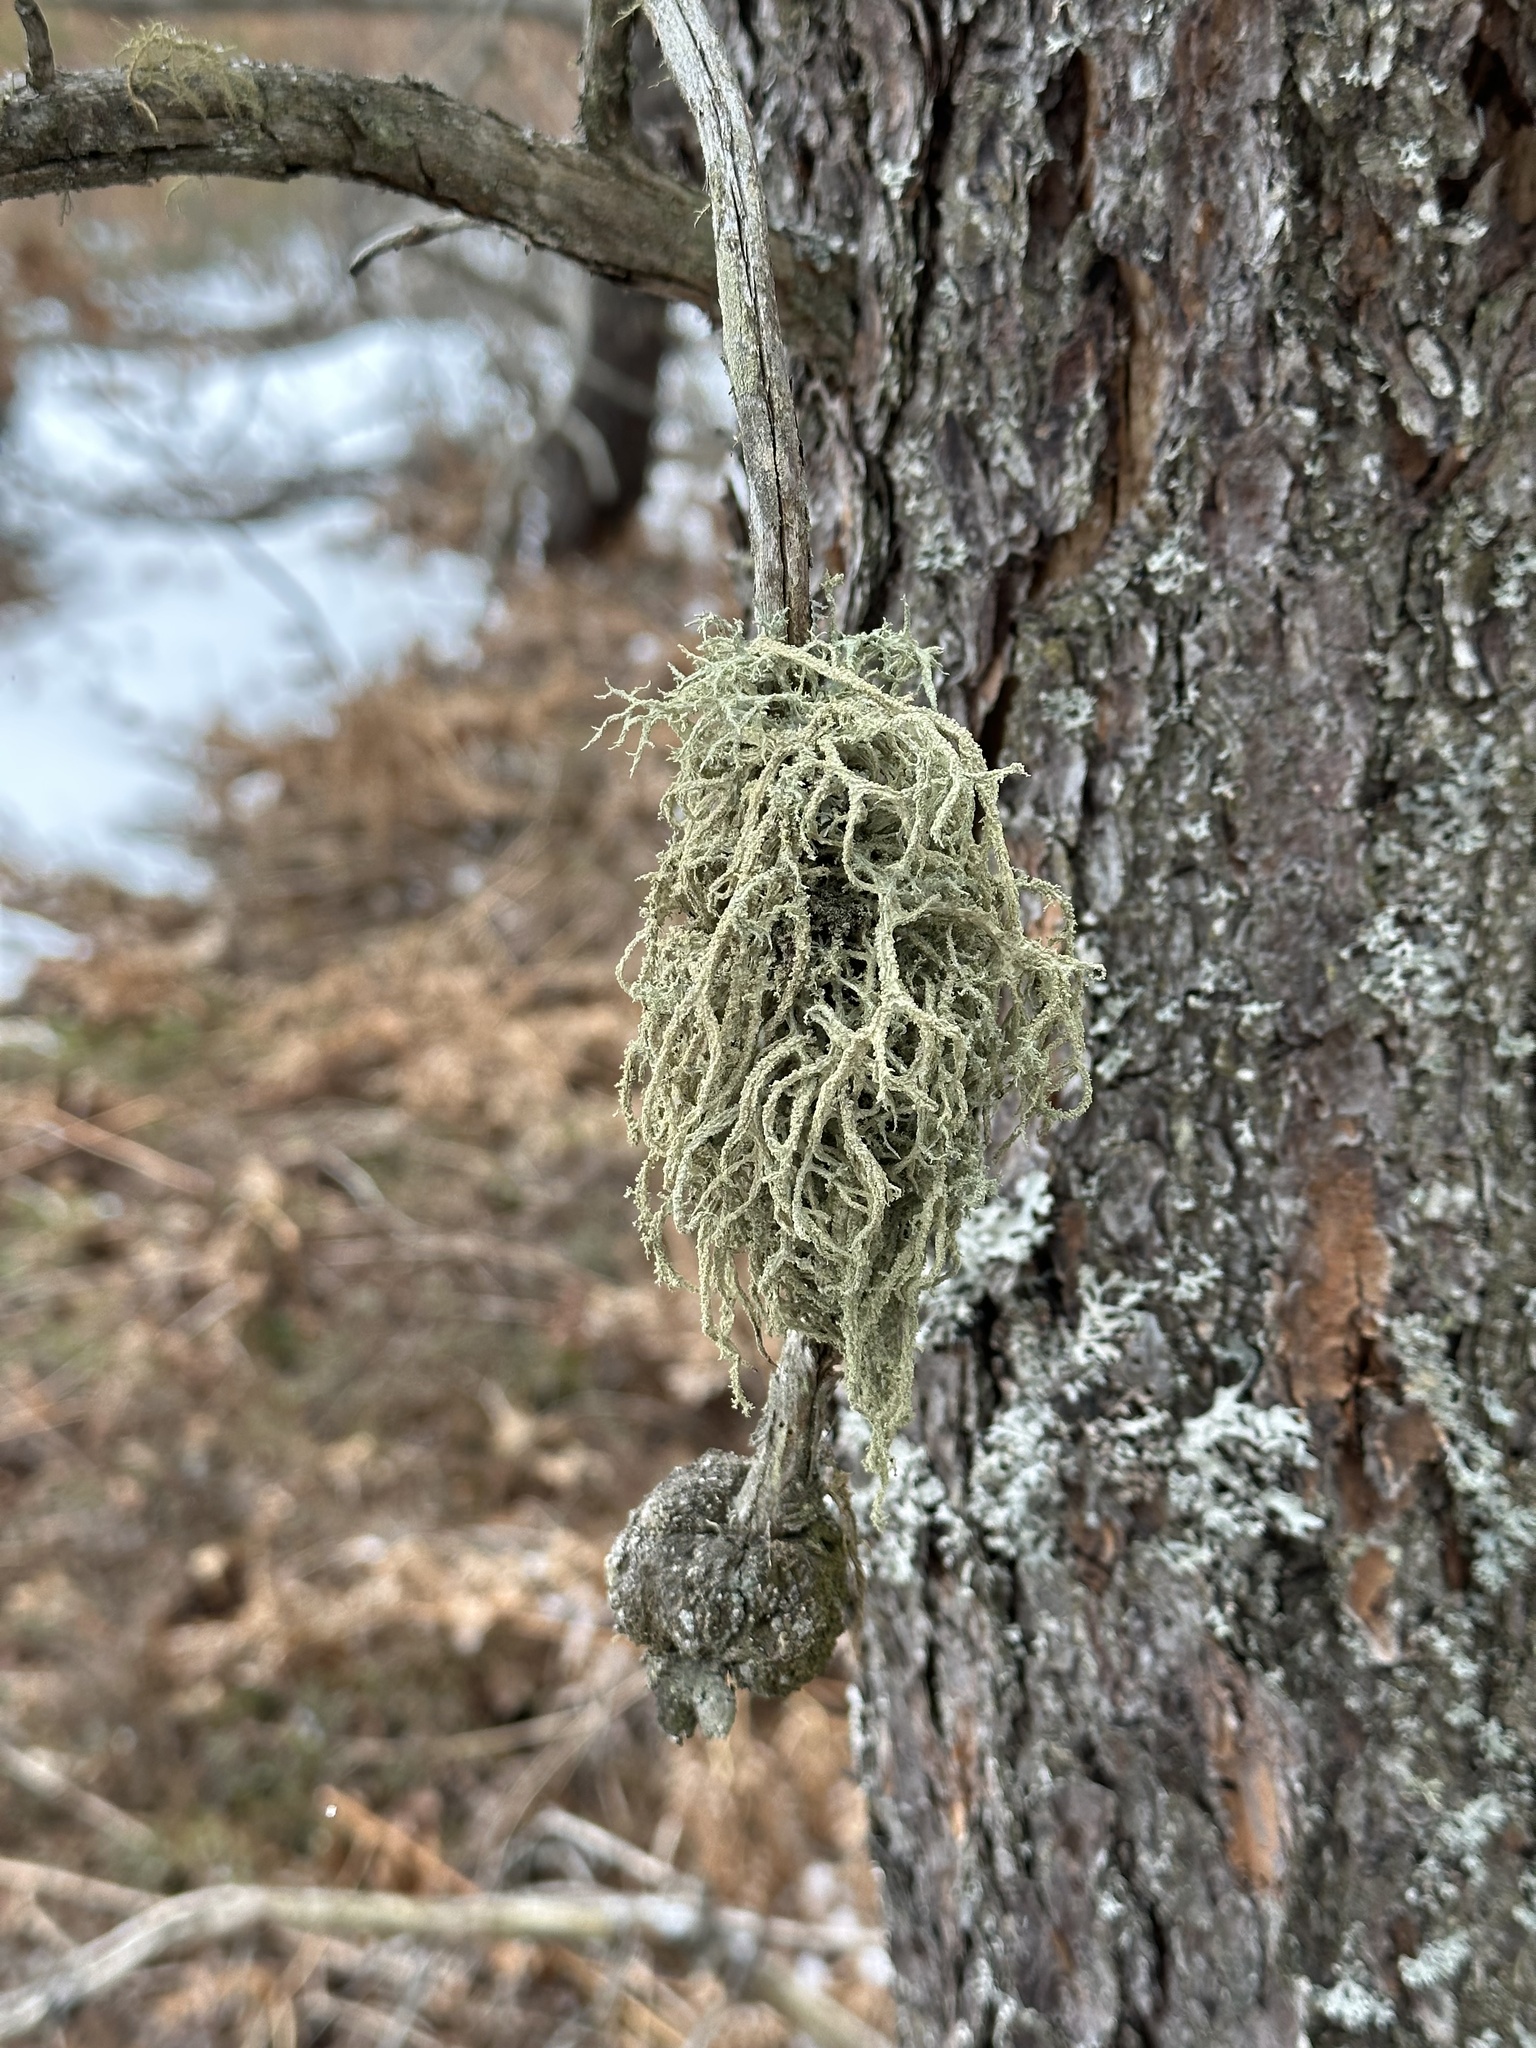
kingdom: Fungi
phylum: Ascomycota
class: Lecanoromycetes
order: Lecanorales
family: Parmeliaceae
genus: Evernia
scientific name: Evernia mesomorpha
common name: Boreal oak moss lichen
